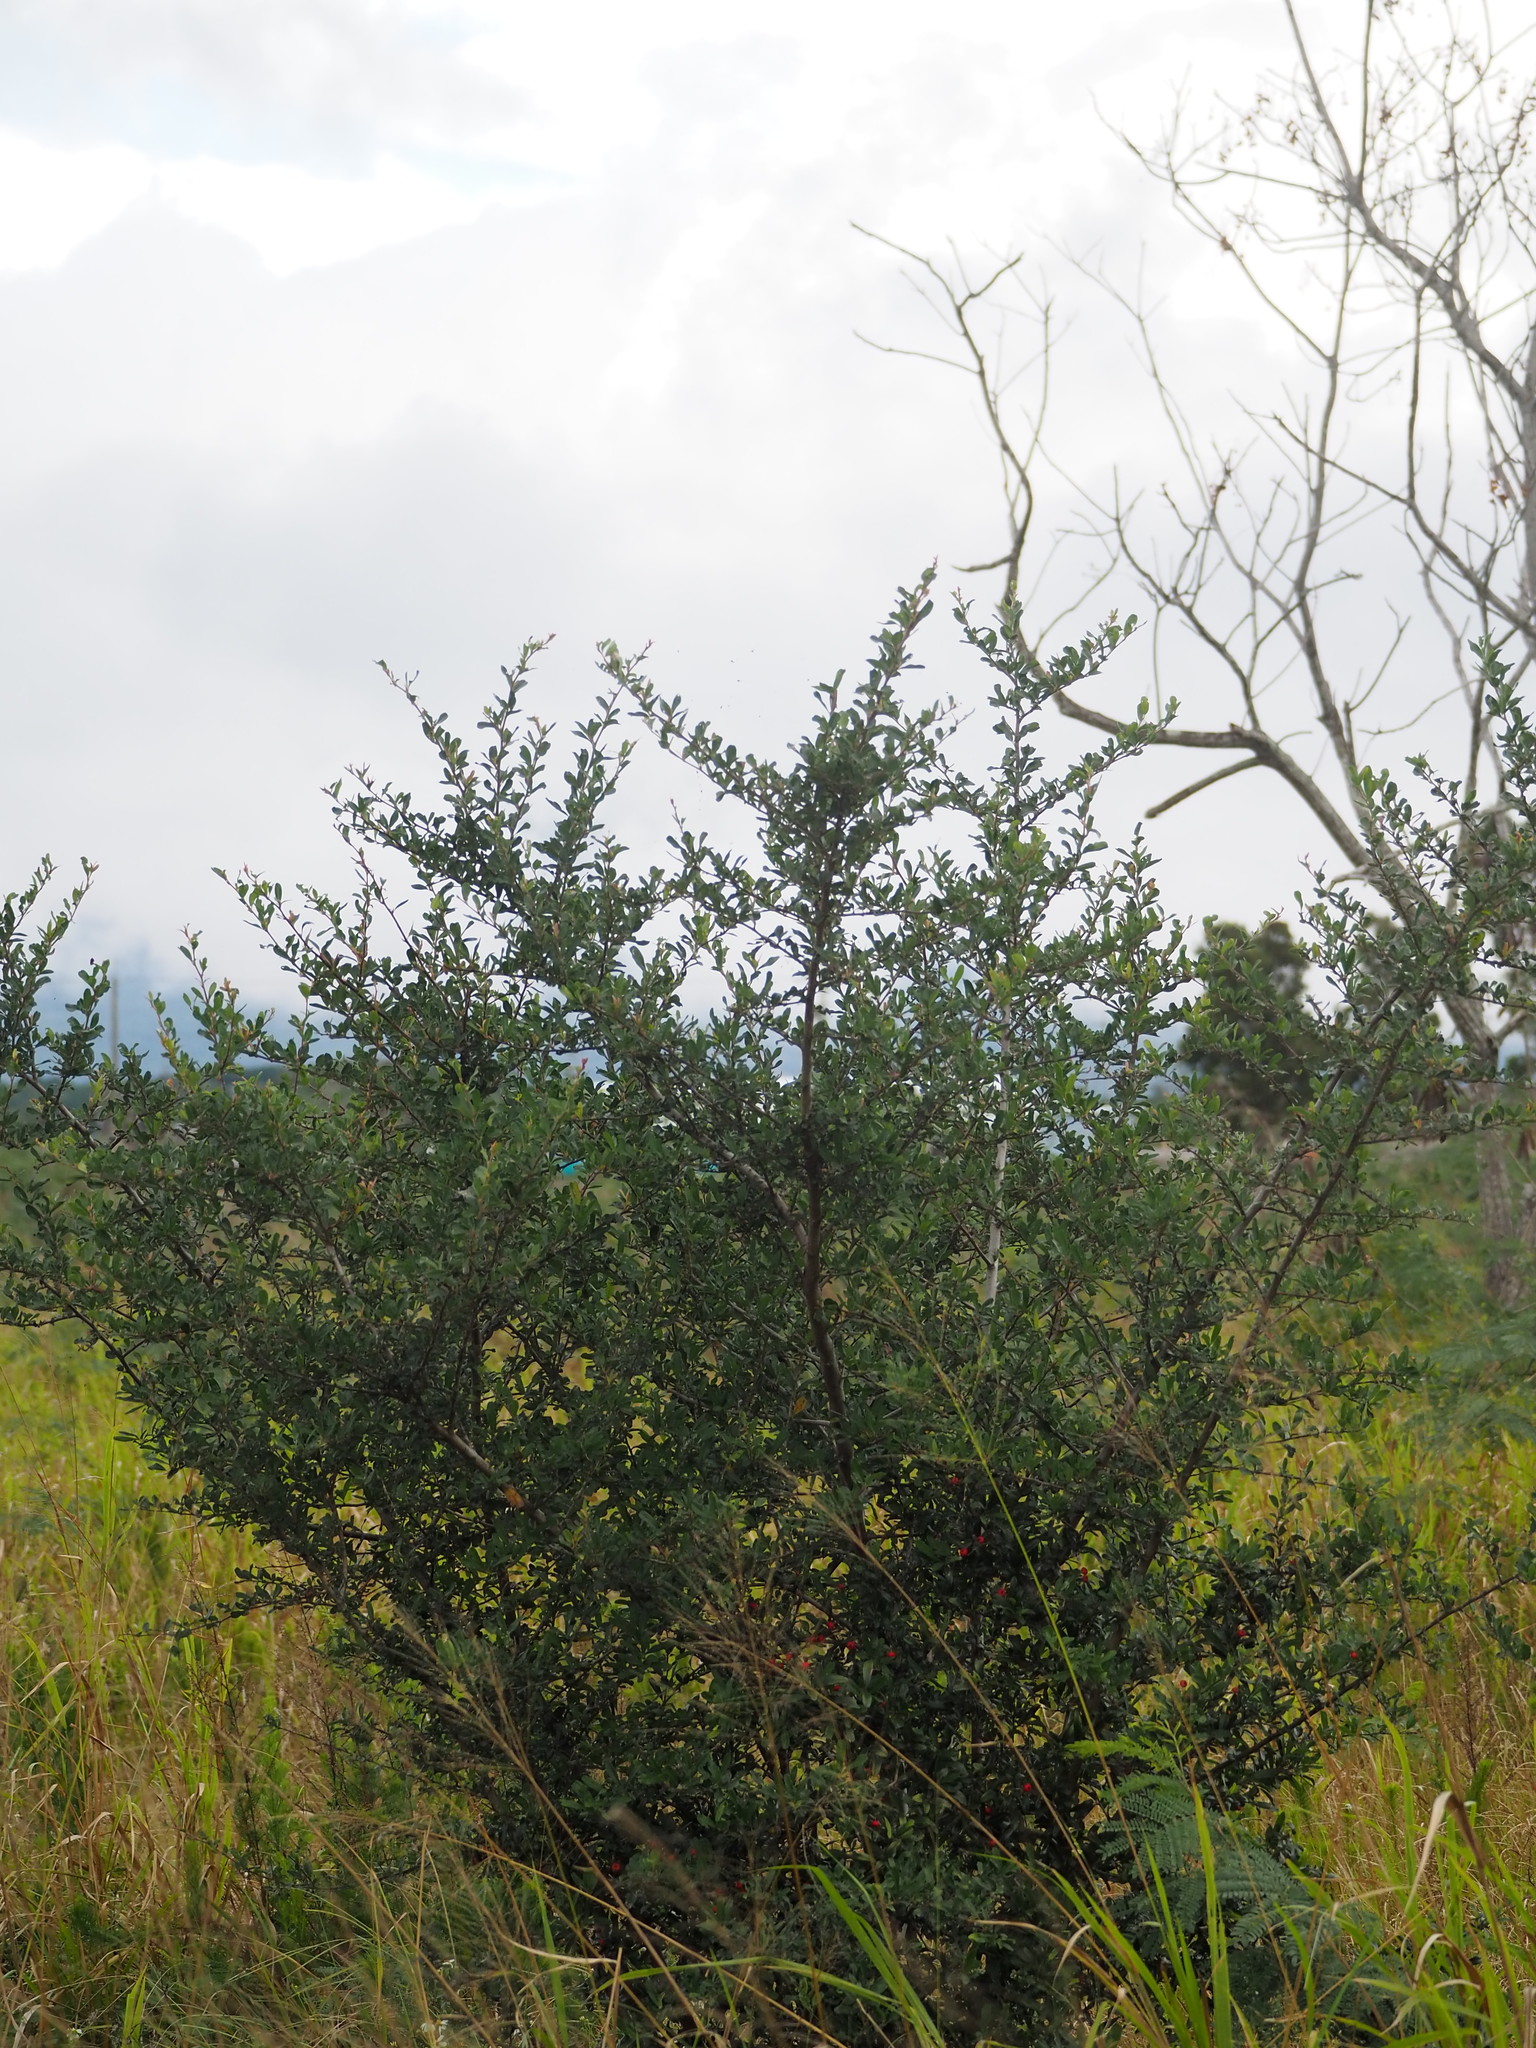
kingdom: Plantae
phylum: Tracheophyta
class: Magnoliopsida
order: Rosales
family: Rosaceae
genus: Pyracantha
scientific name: Pyracantha koidzumii
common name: Formosa firethorn
